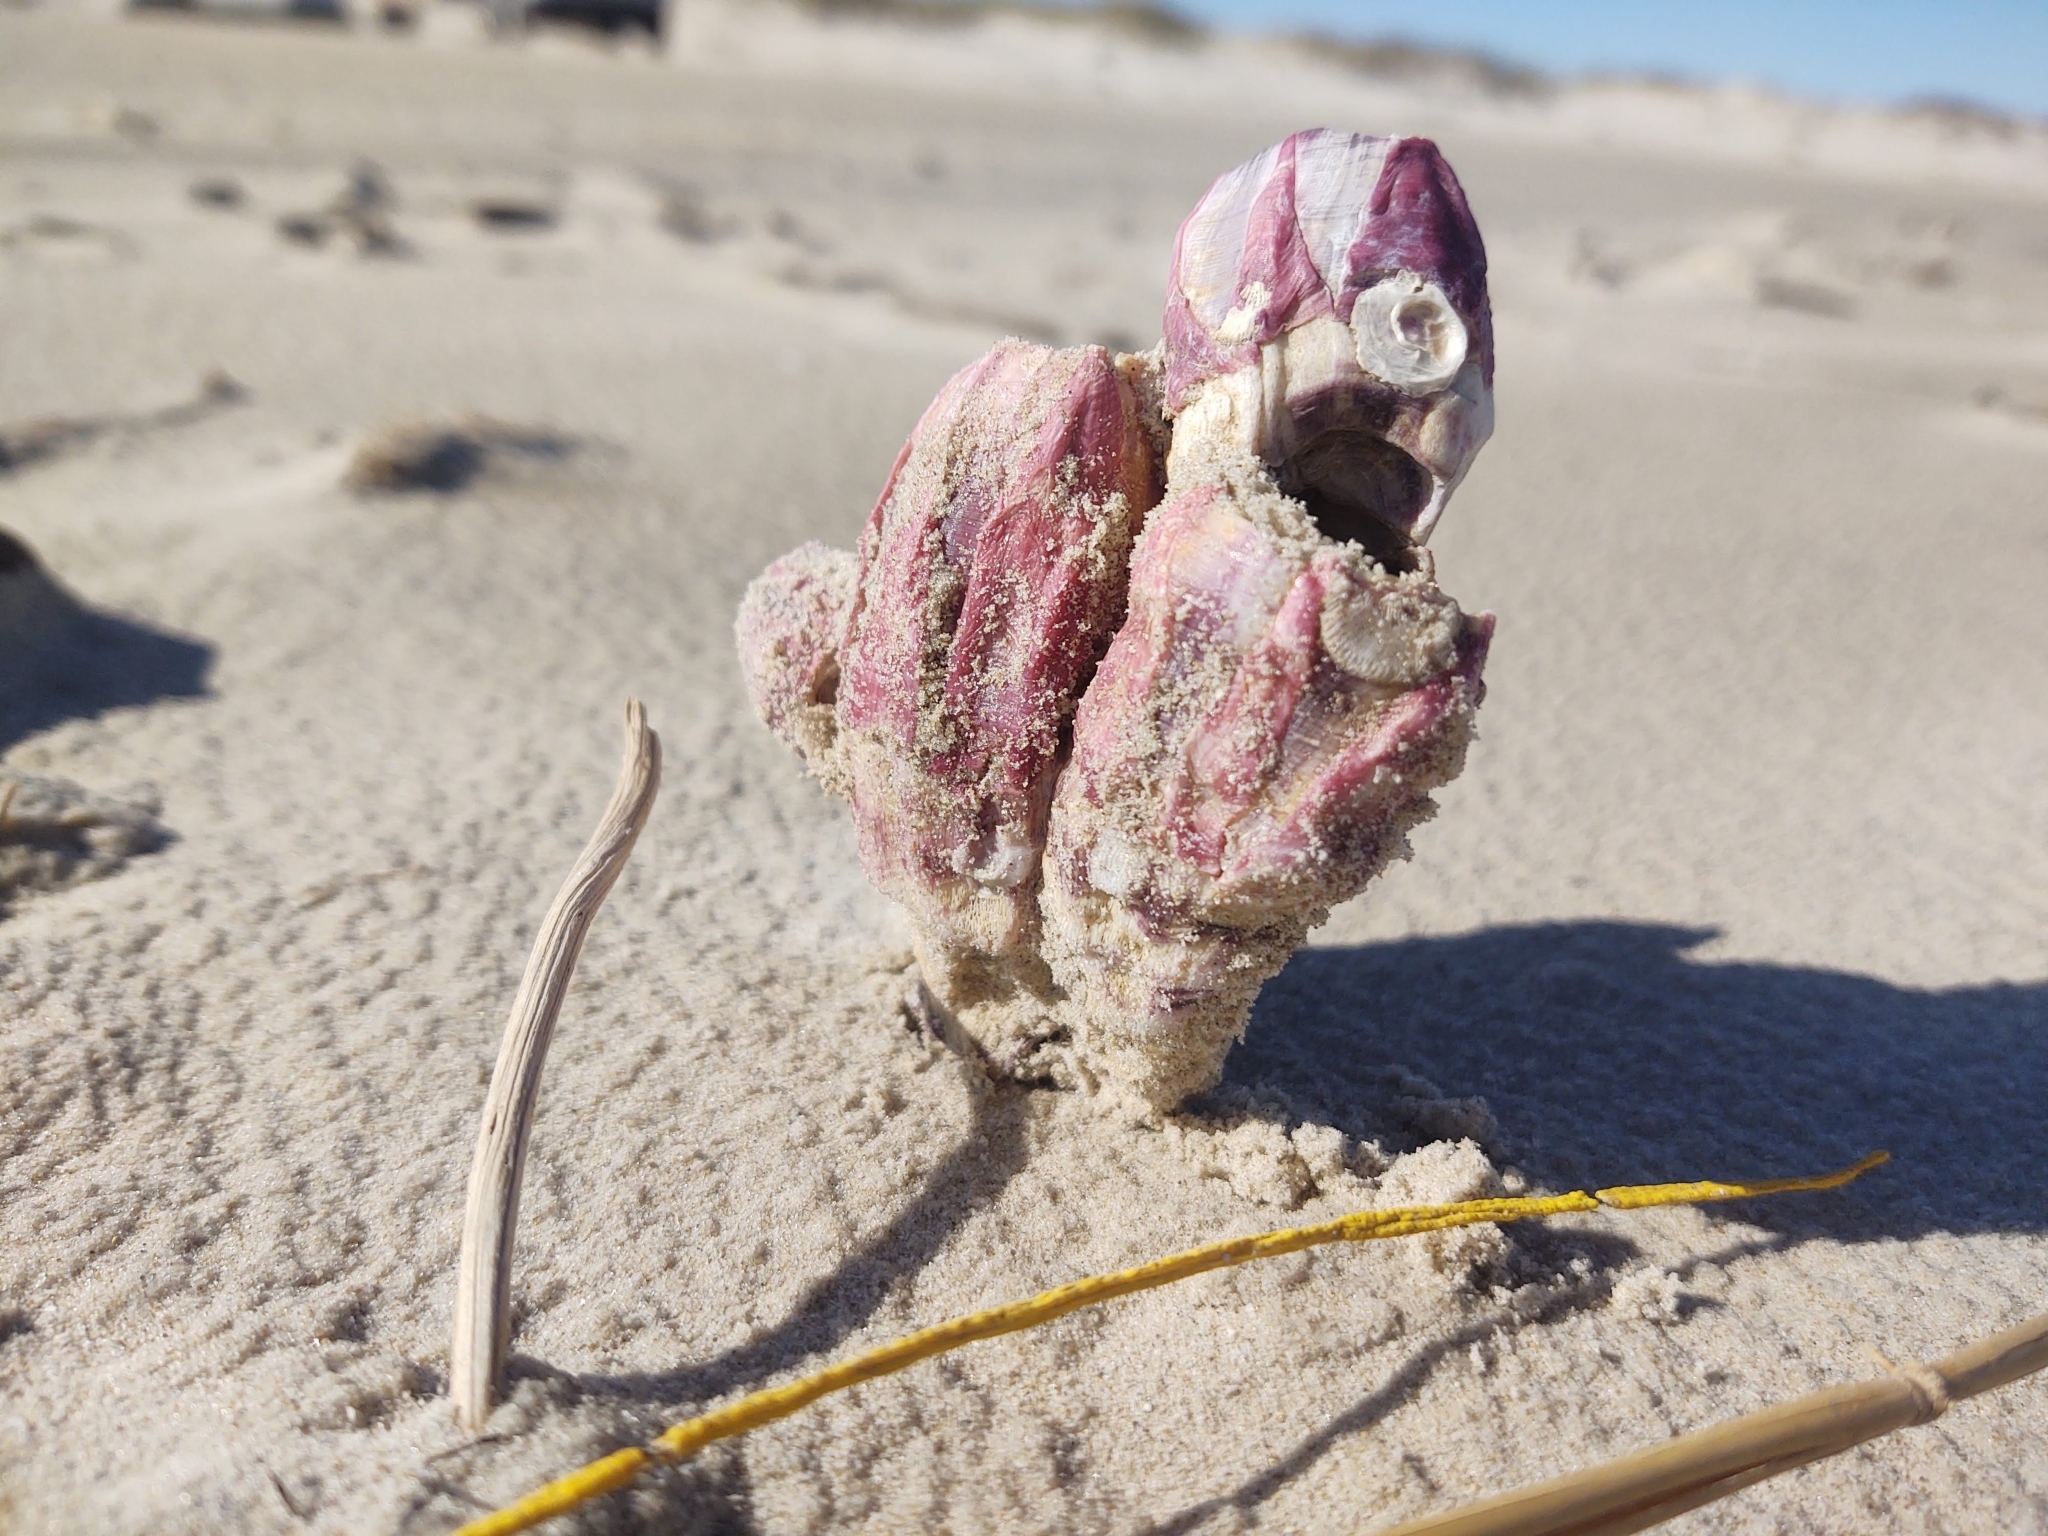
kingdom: Animalia
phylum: Arthropoda
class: Maxillopoda
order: Sessilia
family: Balanidae
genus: Megabalanus
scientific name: Megabalanus tintinnabulum
